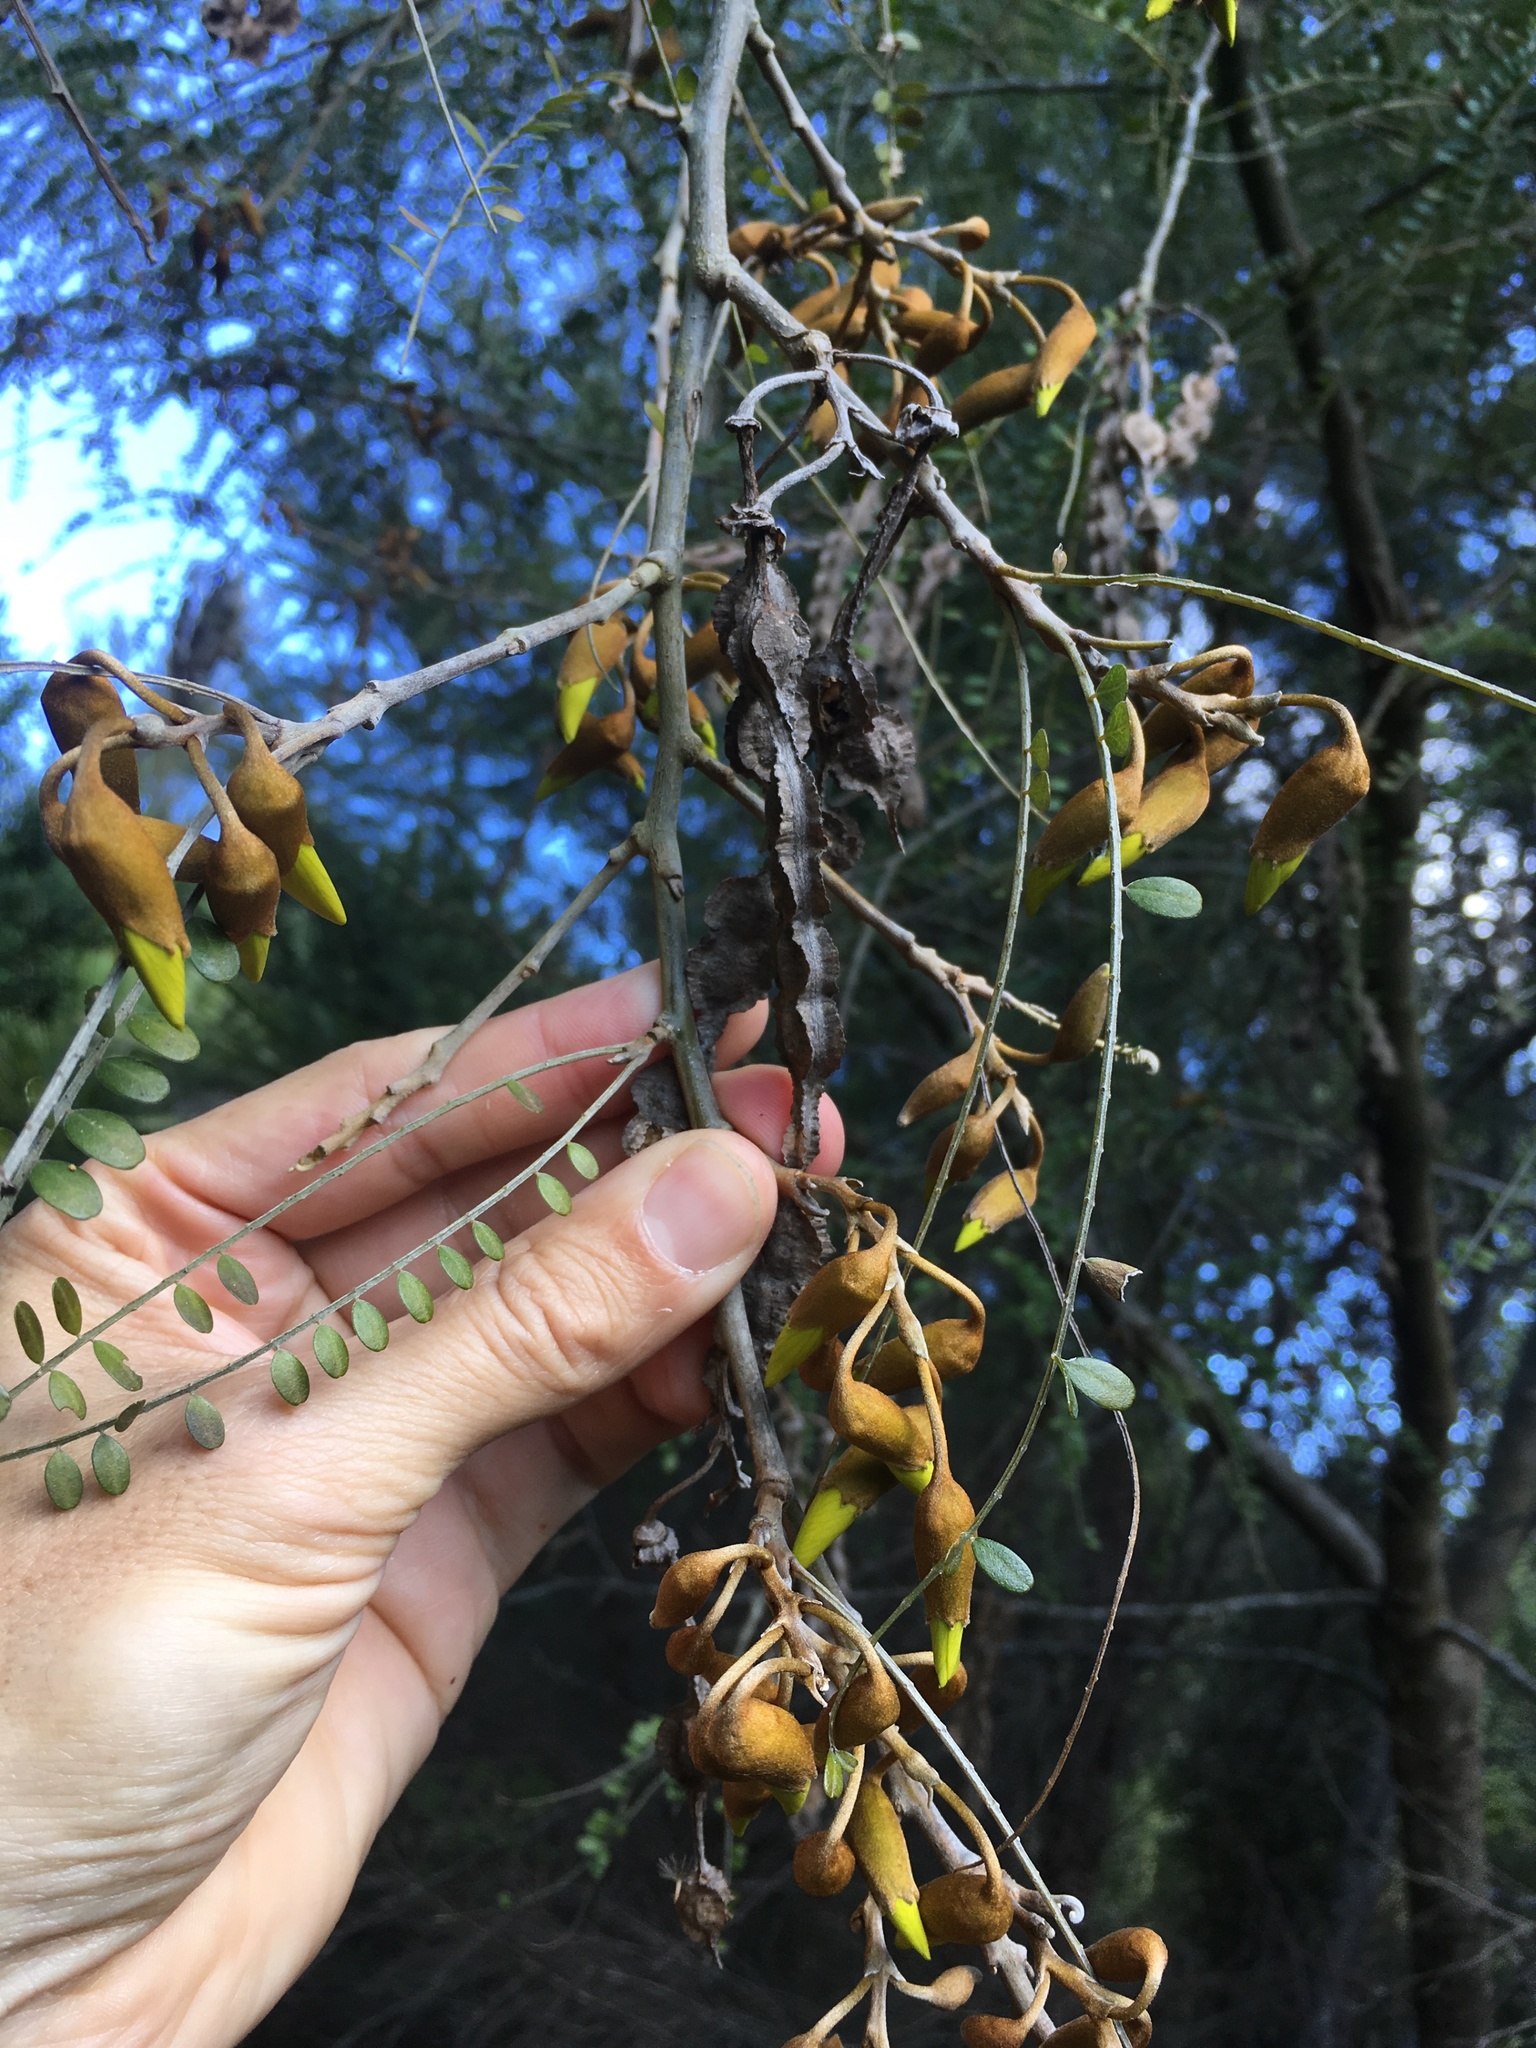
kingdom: Plantae
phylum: Tracheophyta
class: Magnoliopsida
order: Fabales
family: Fabaceae
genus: Sophora
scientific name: Sophora microphylla
